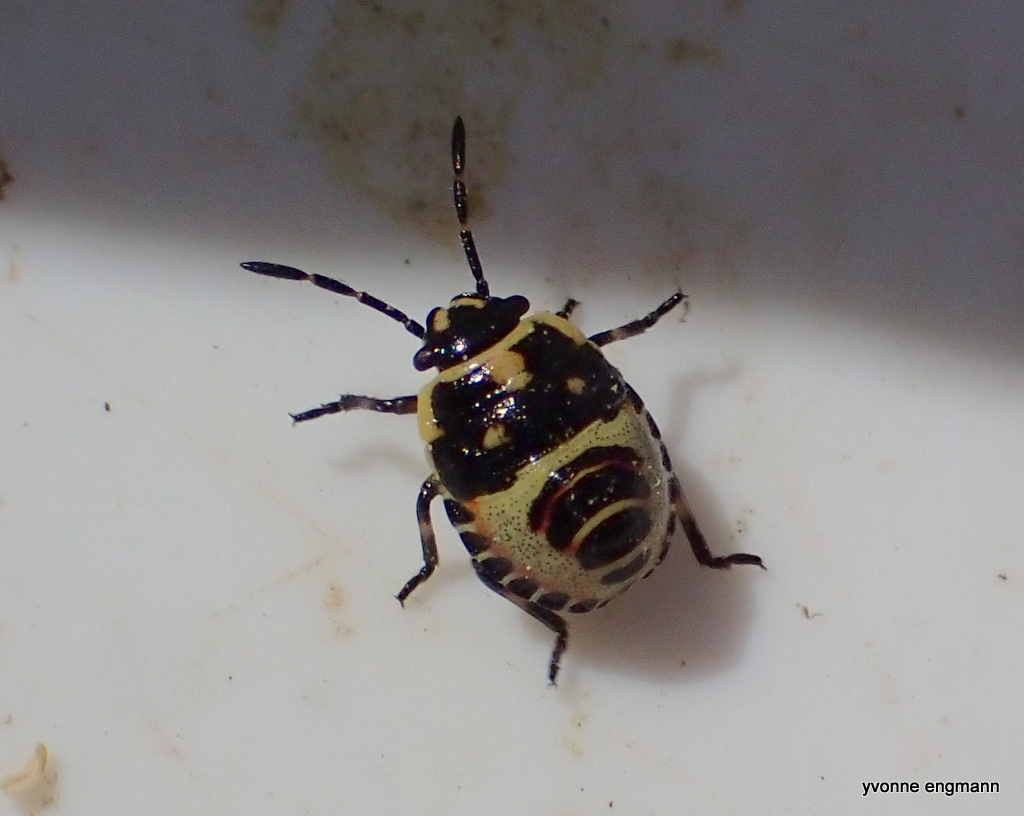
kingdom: Animalia
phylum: Arthropoda
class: Insecta
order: Hemiptera
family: Pentatomidae
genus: Eurydema
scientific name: Eurydema oleracea
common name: Cabbage bug
